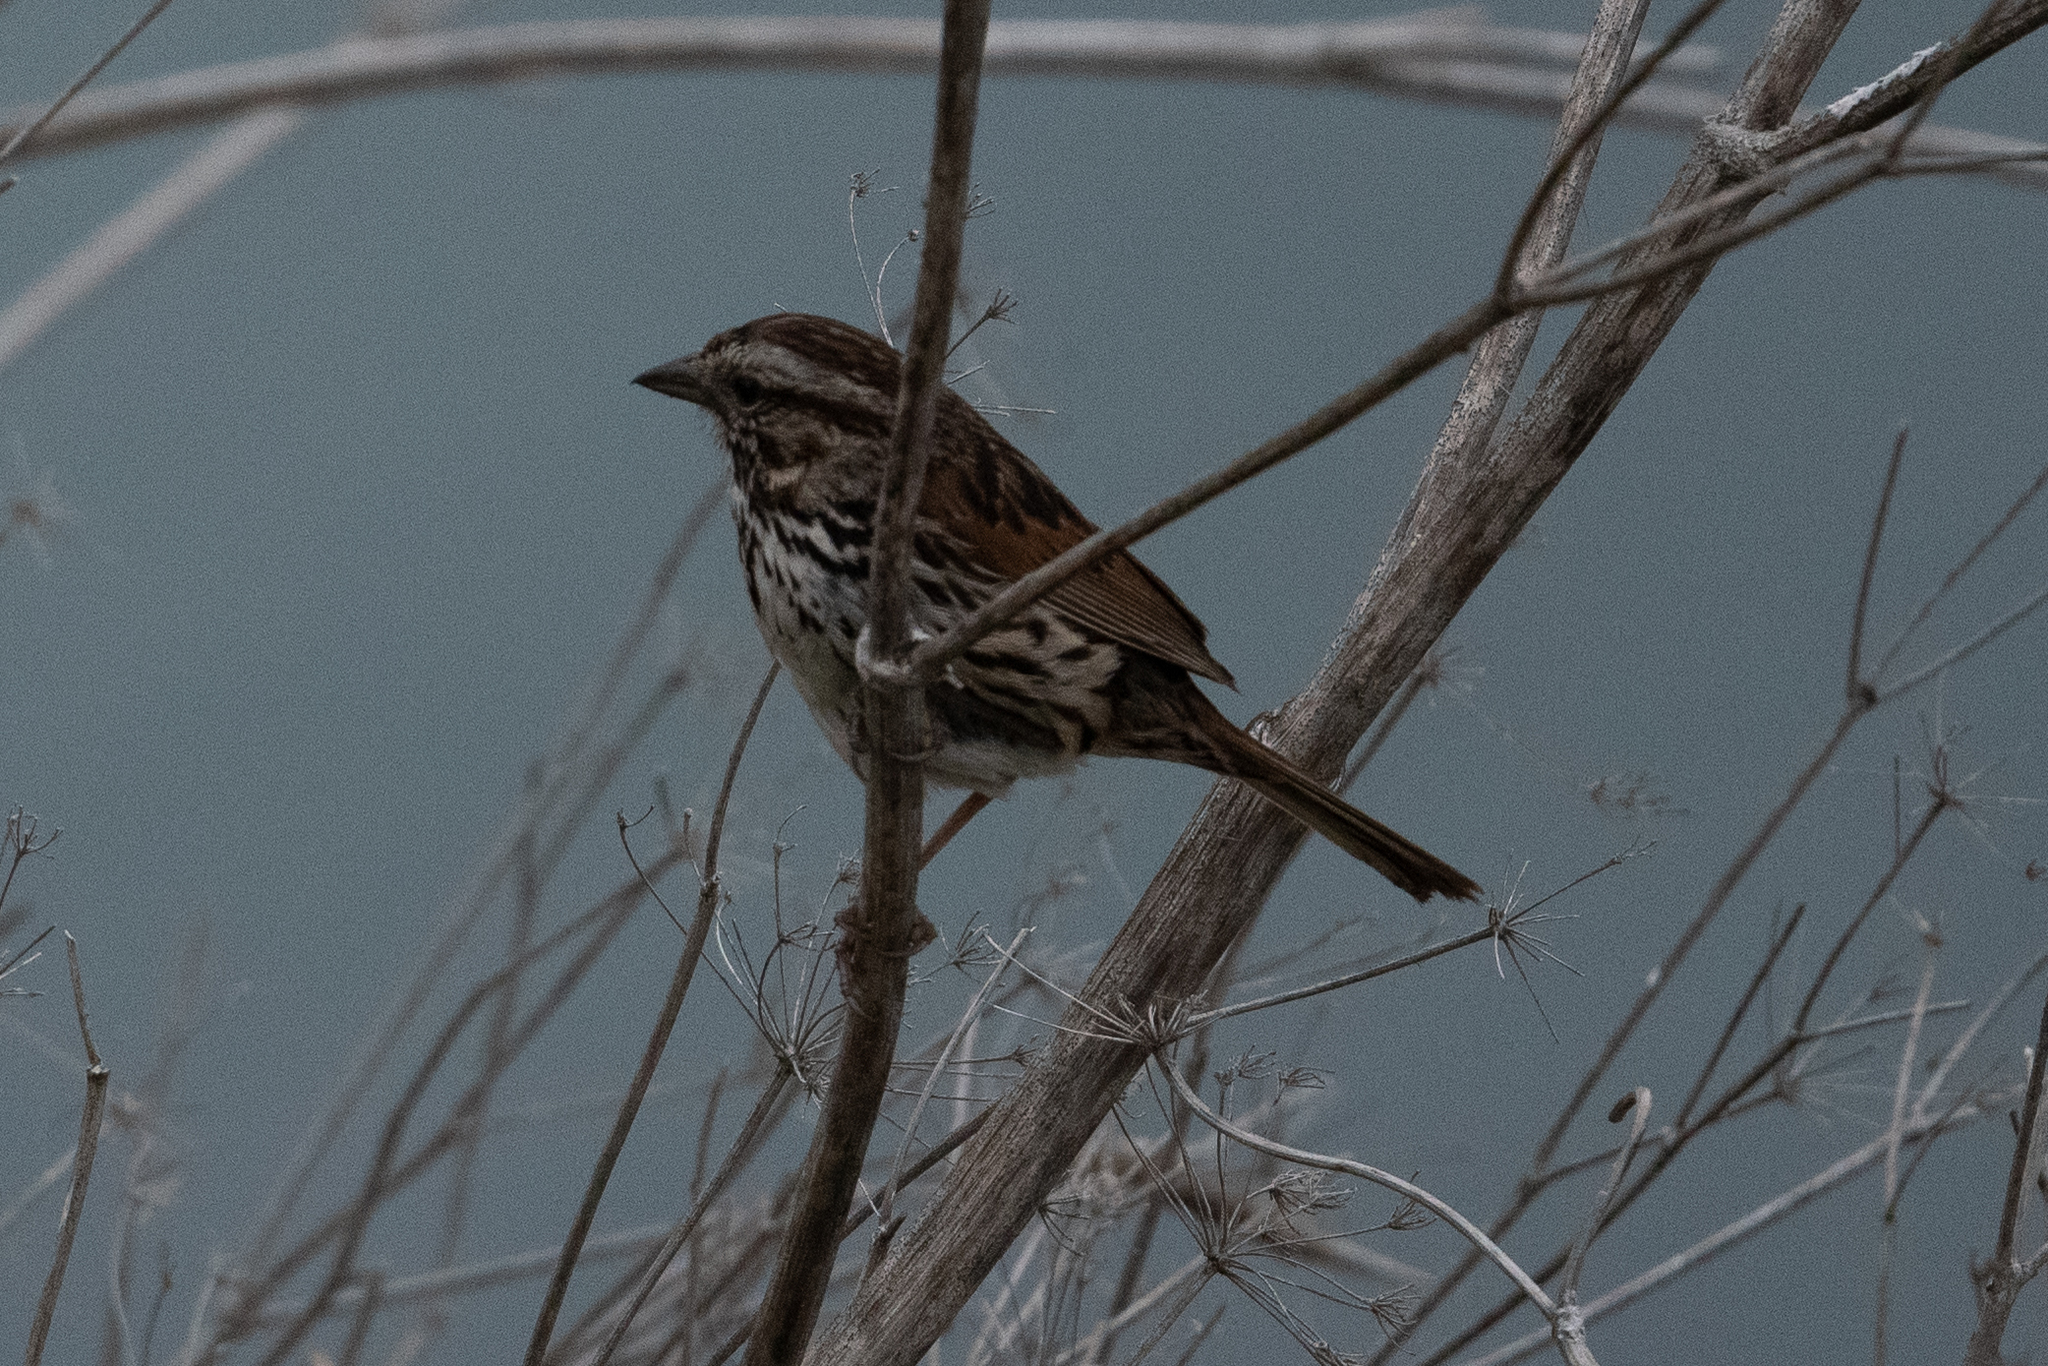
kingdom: Animalia
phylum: Chordata
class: Aves
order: Passeriformes
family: Passerellidae
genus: Melospiza
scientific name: Melospiza melodia
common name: Song sparrow
